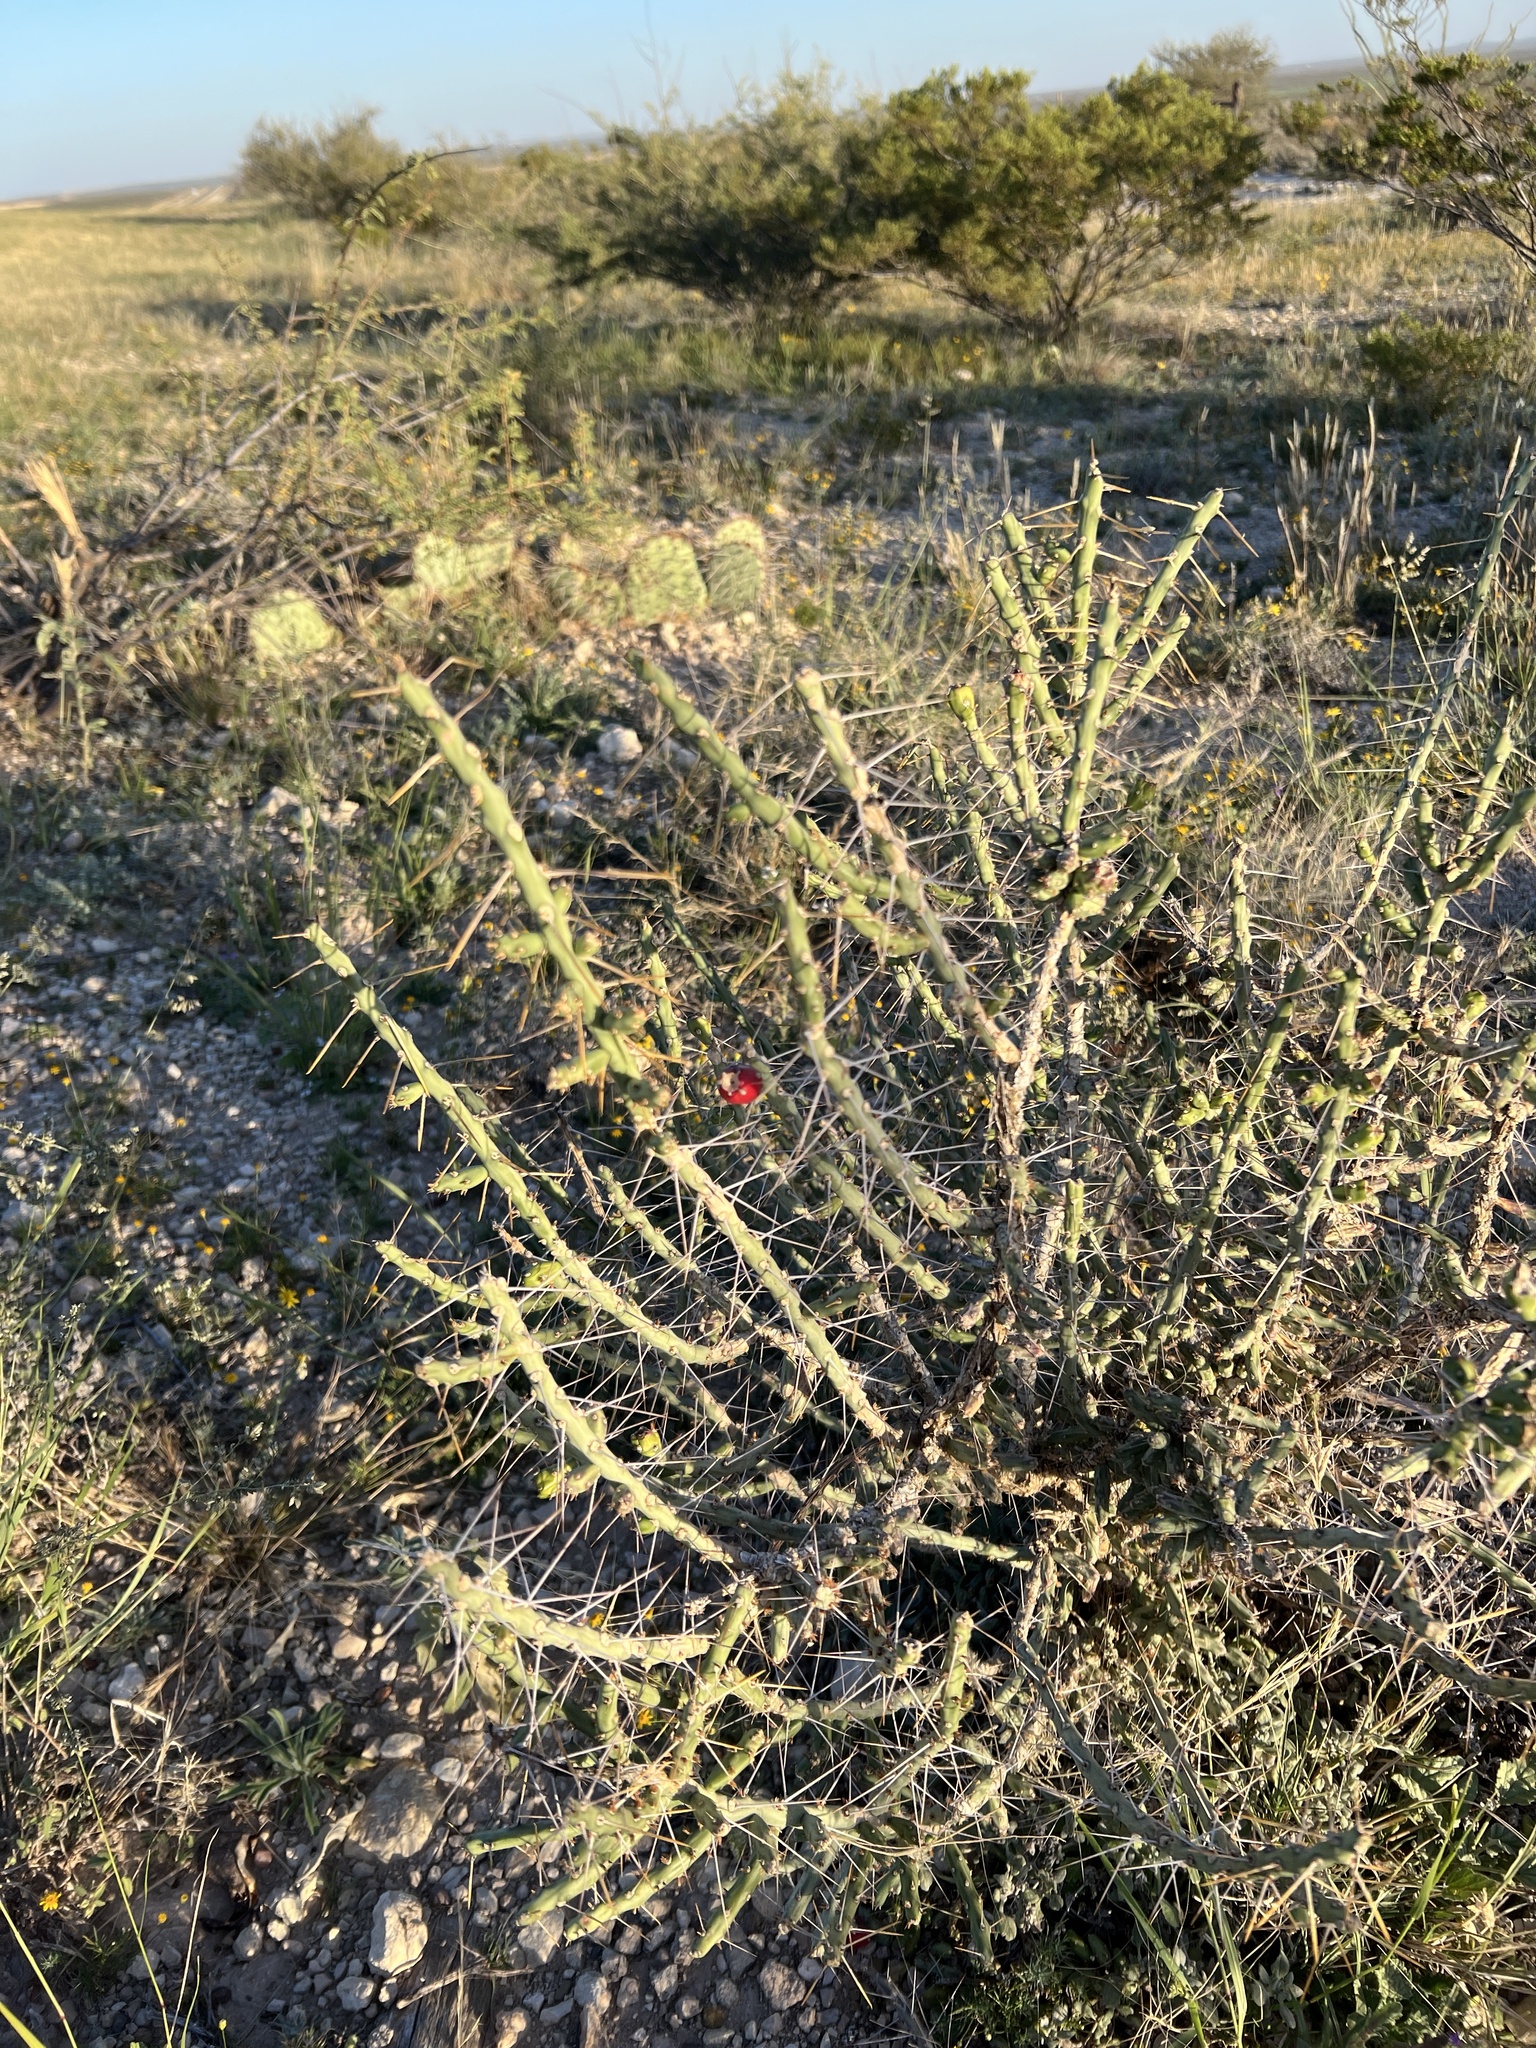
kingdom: Plantae
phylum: Tracheophyta
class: Magnoliopsida
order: Caryophyllales
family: Cactaceae
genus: Cylindropuntia
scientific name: Cylindropuntia leptocaulis
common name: Christmas cactus
